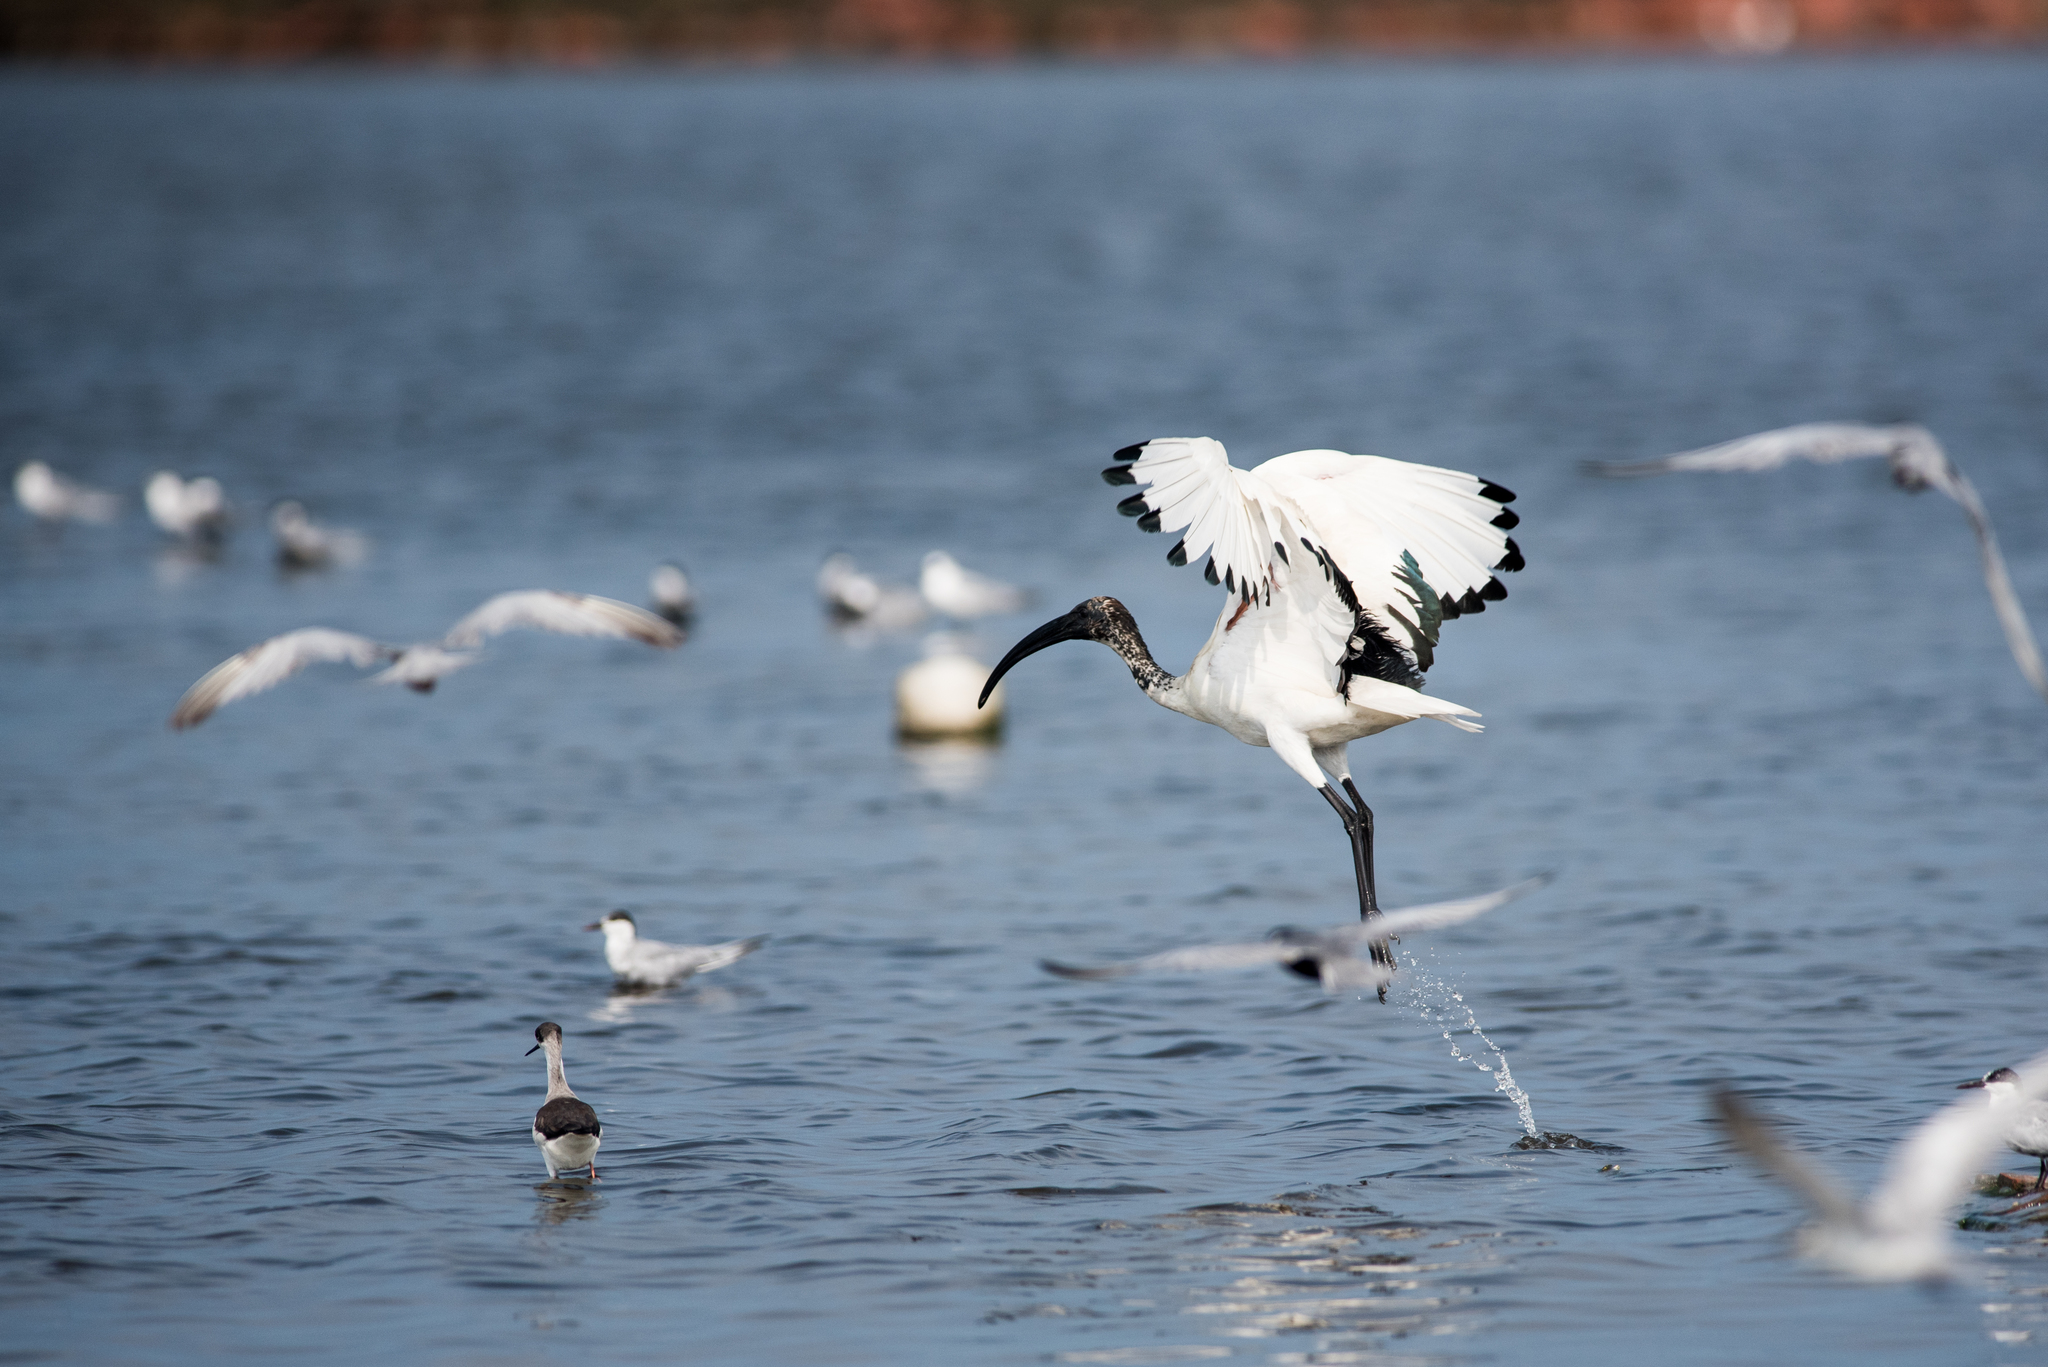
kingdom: Animalia
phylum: Chordata
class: Aves
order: Pelecaniformes
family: Threskiornithidae
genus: Threskiornis
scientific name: Threskiornis aethiopicus
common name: Sacred ibis
